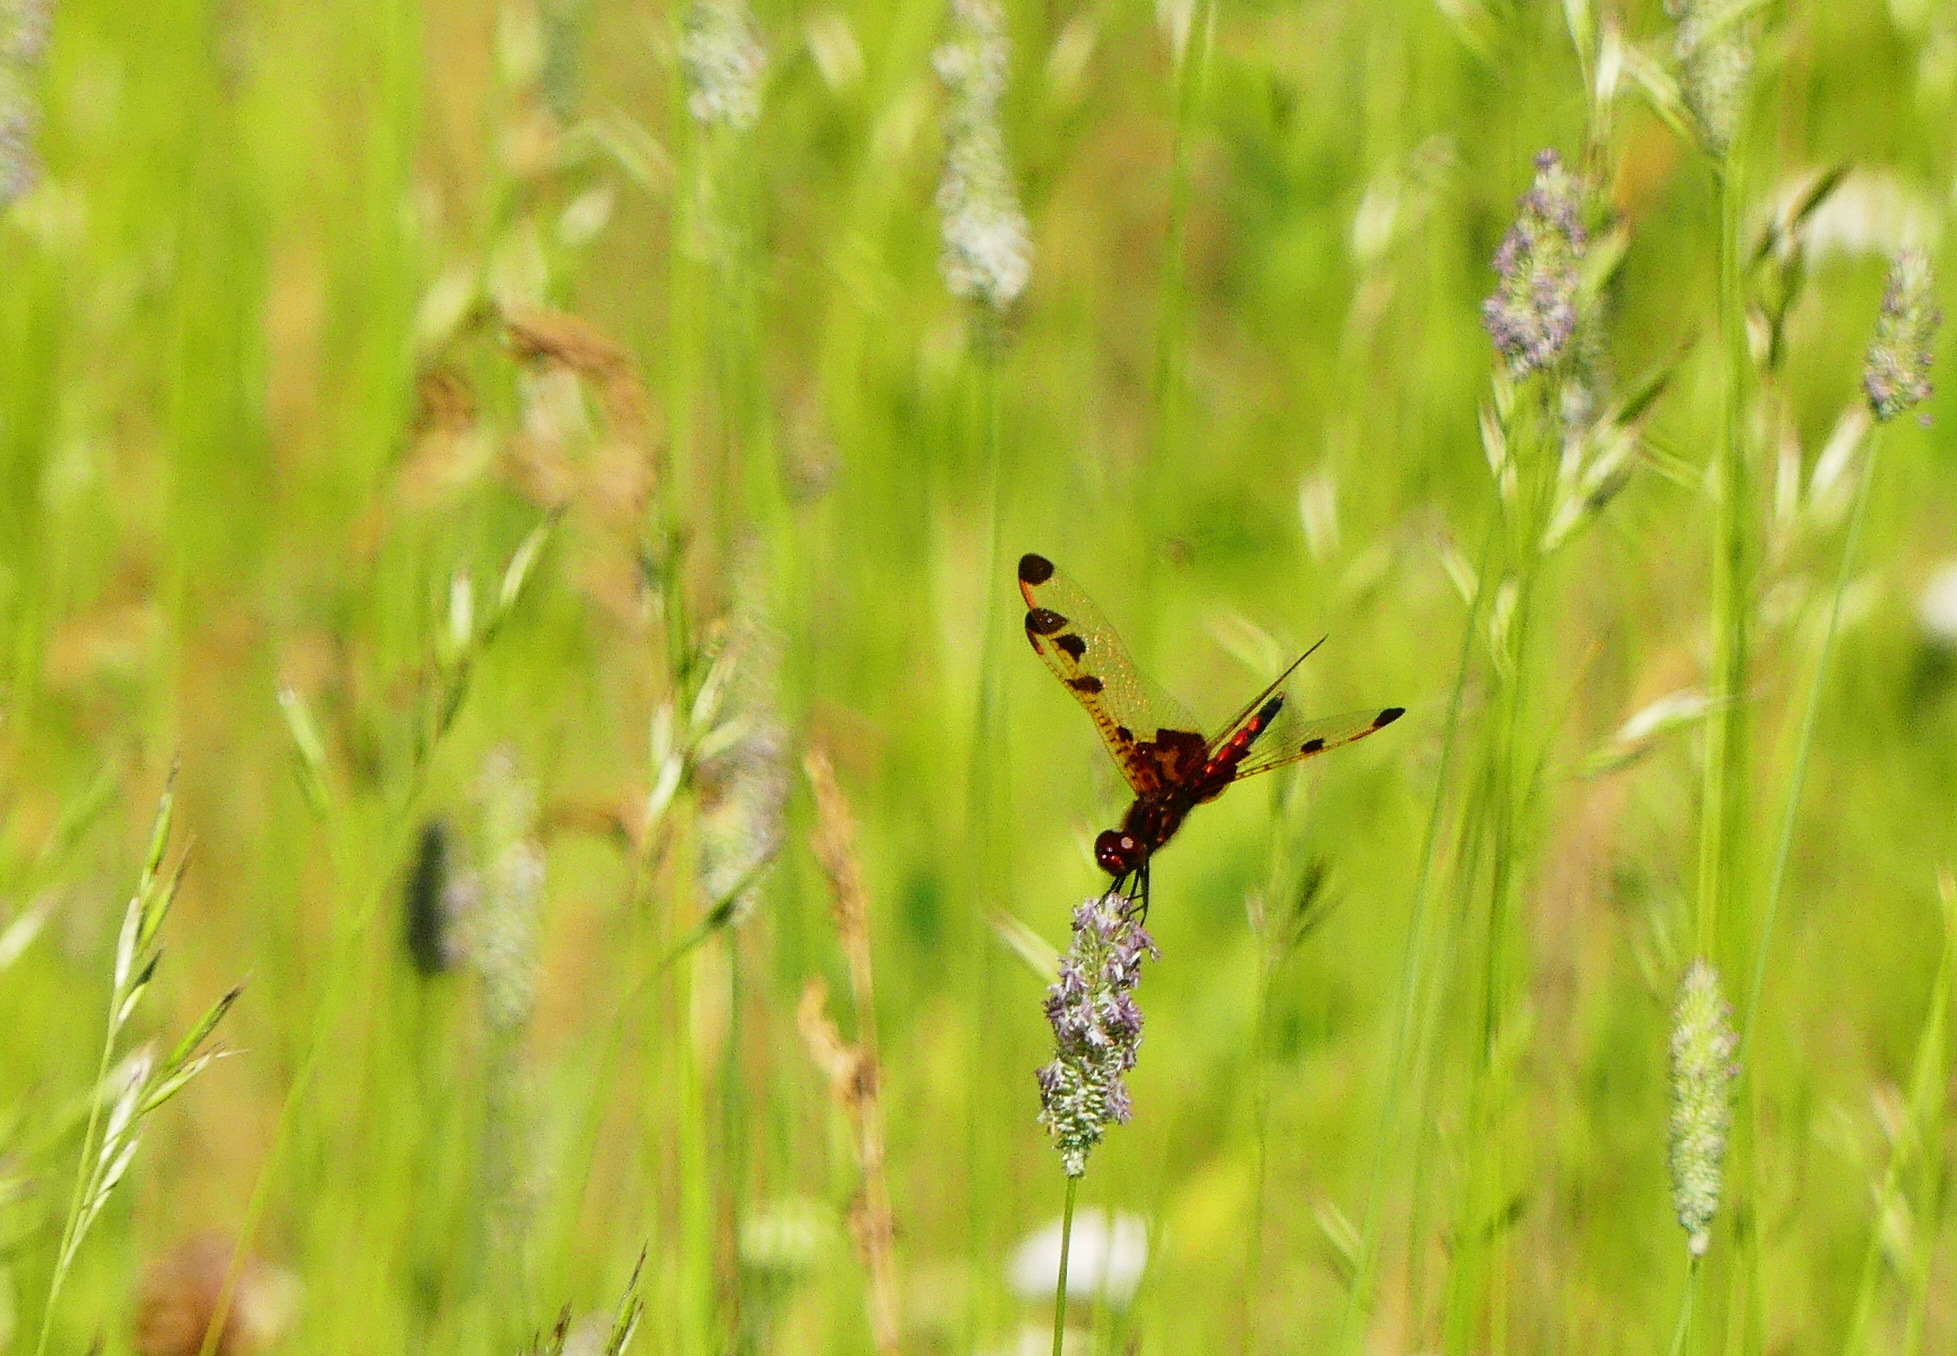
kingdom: Animalia
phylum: Arthropoda
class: Insecta
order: Odonata
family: Libellulidae
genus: Celithemis
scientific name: Celithemis elisa
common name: Calico pennant
